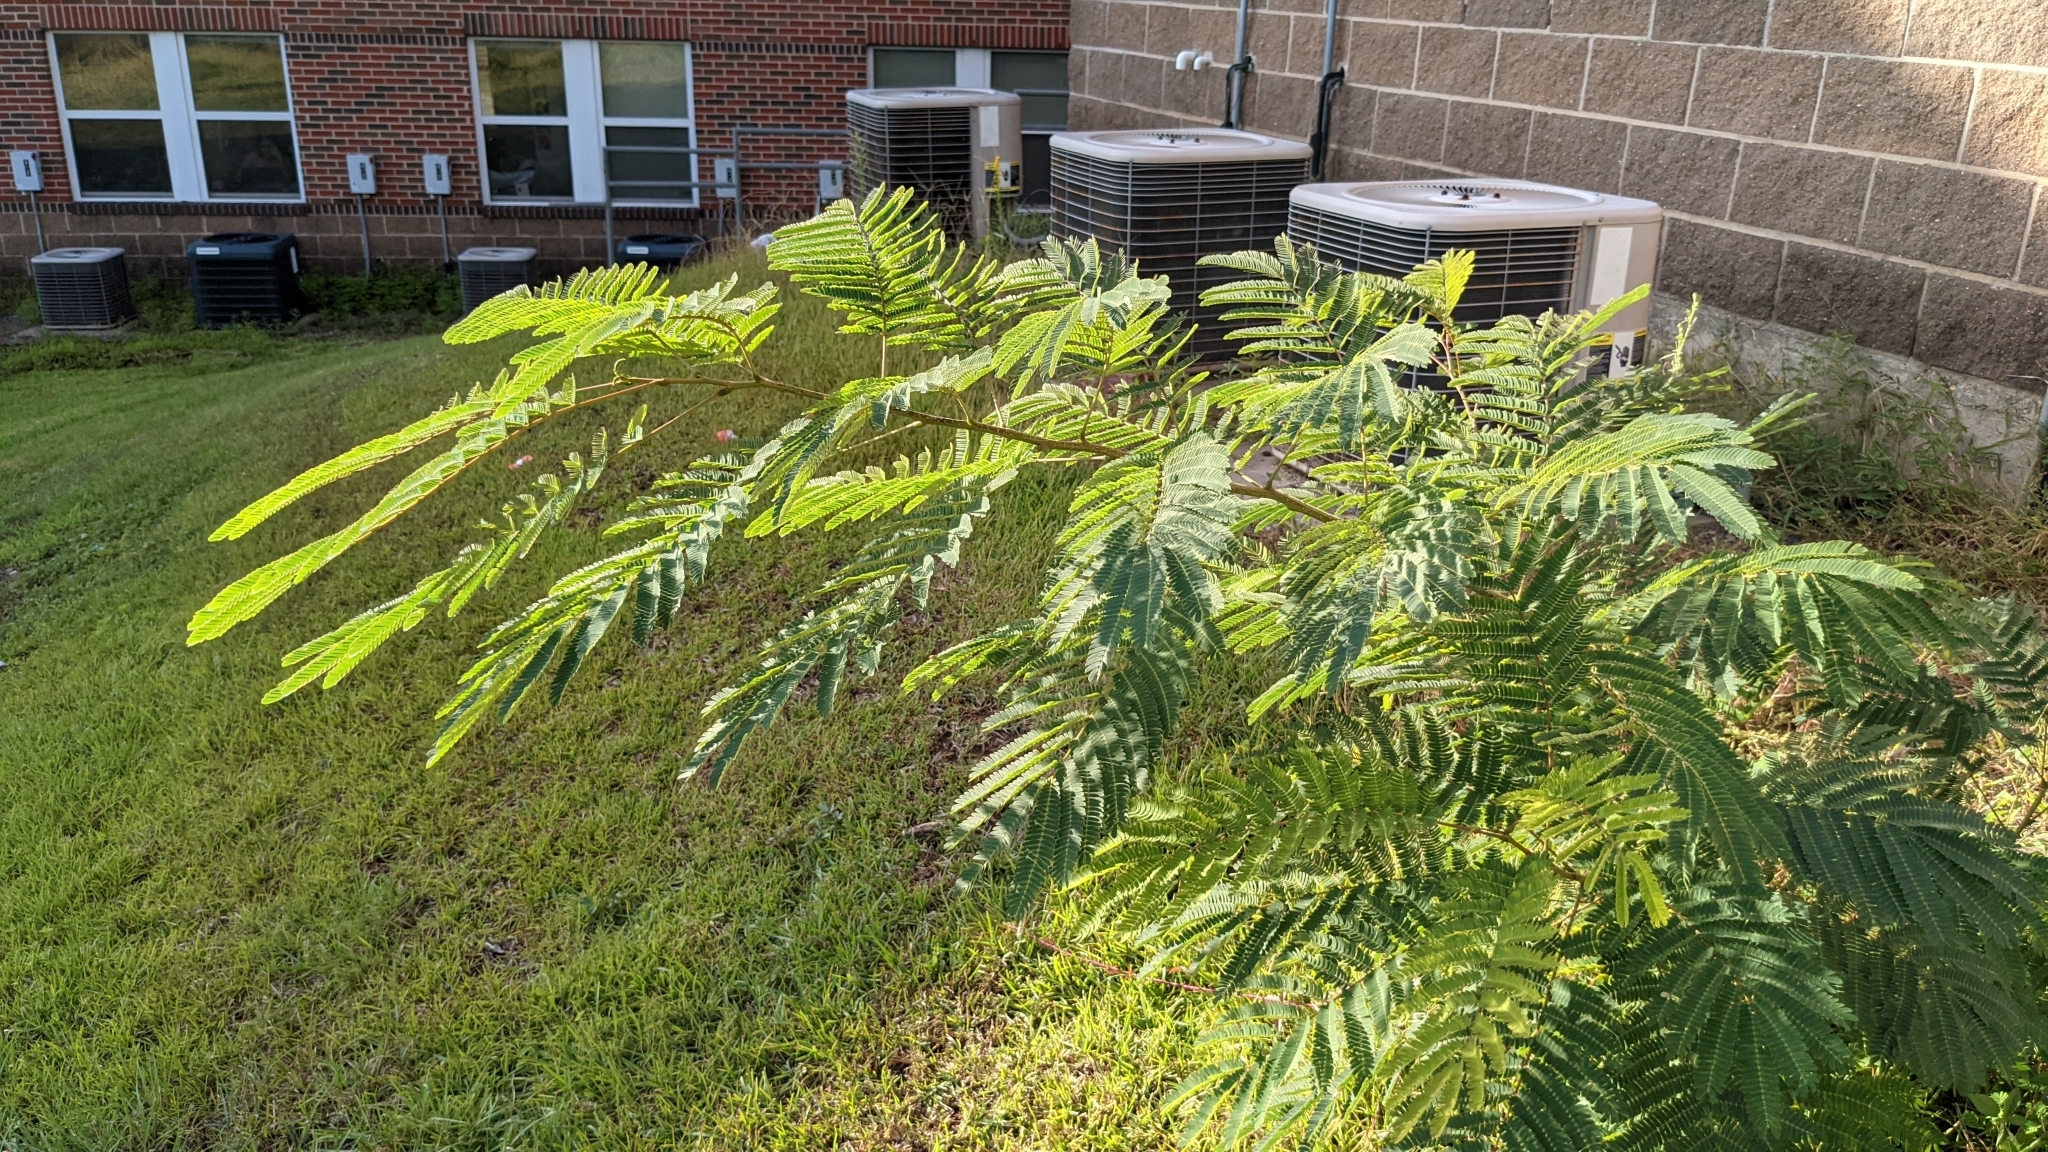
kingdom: Plantae
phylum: Tracheophyta
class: Magnoliopsida
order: Fabales
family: Fabaceae
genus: Albizia
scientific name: Albizia julibrissin
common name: Silktree
